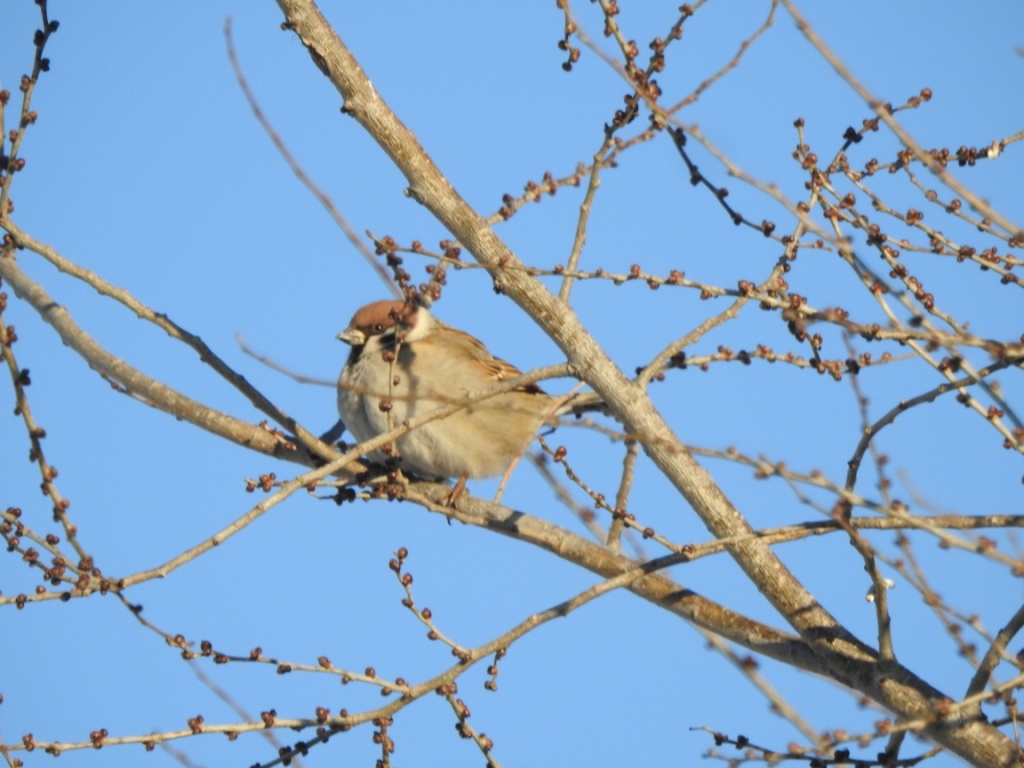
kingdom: Animalia
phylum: Chordata
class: Aves
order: Passeriformes
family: Passeridae
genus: Passer
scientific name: Passer montanus
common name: Eurasian tree sparrow
